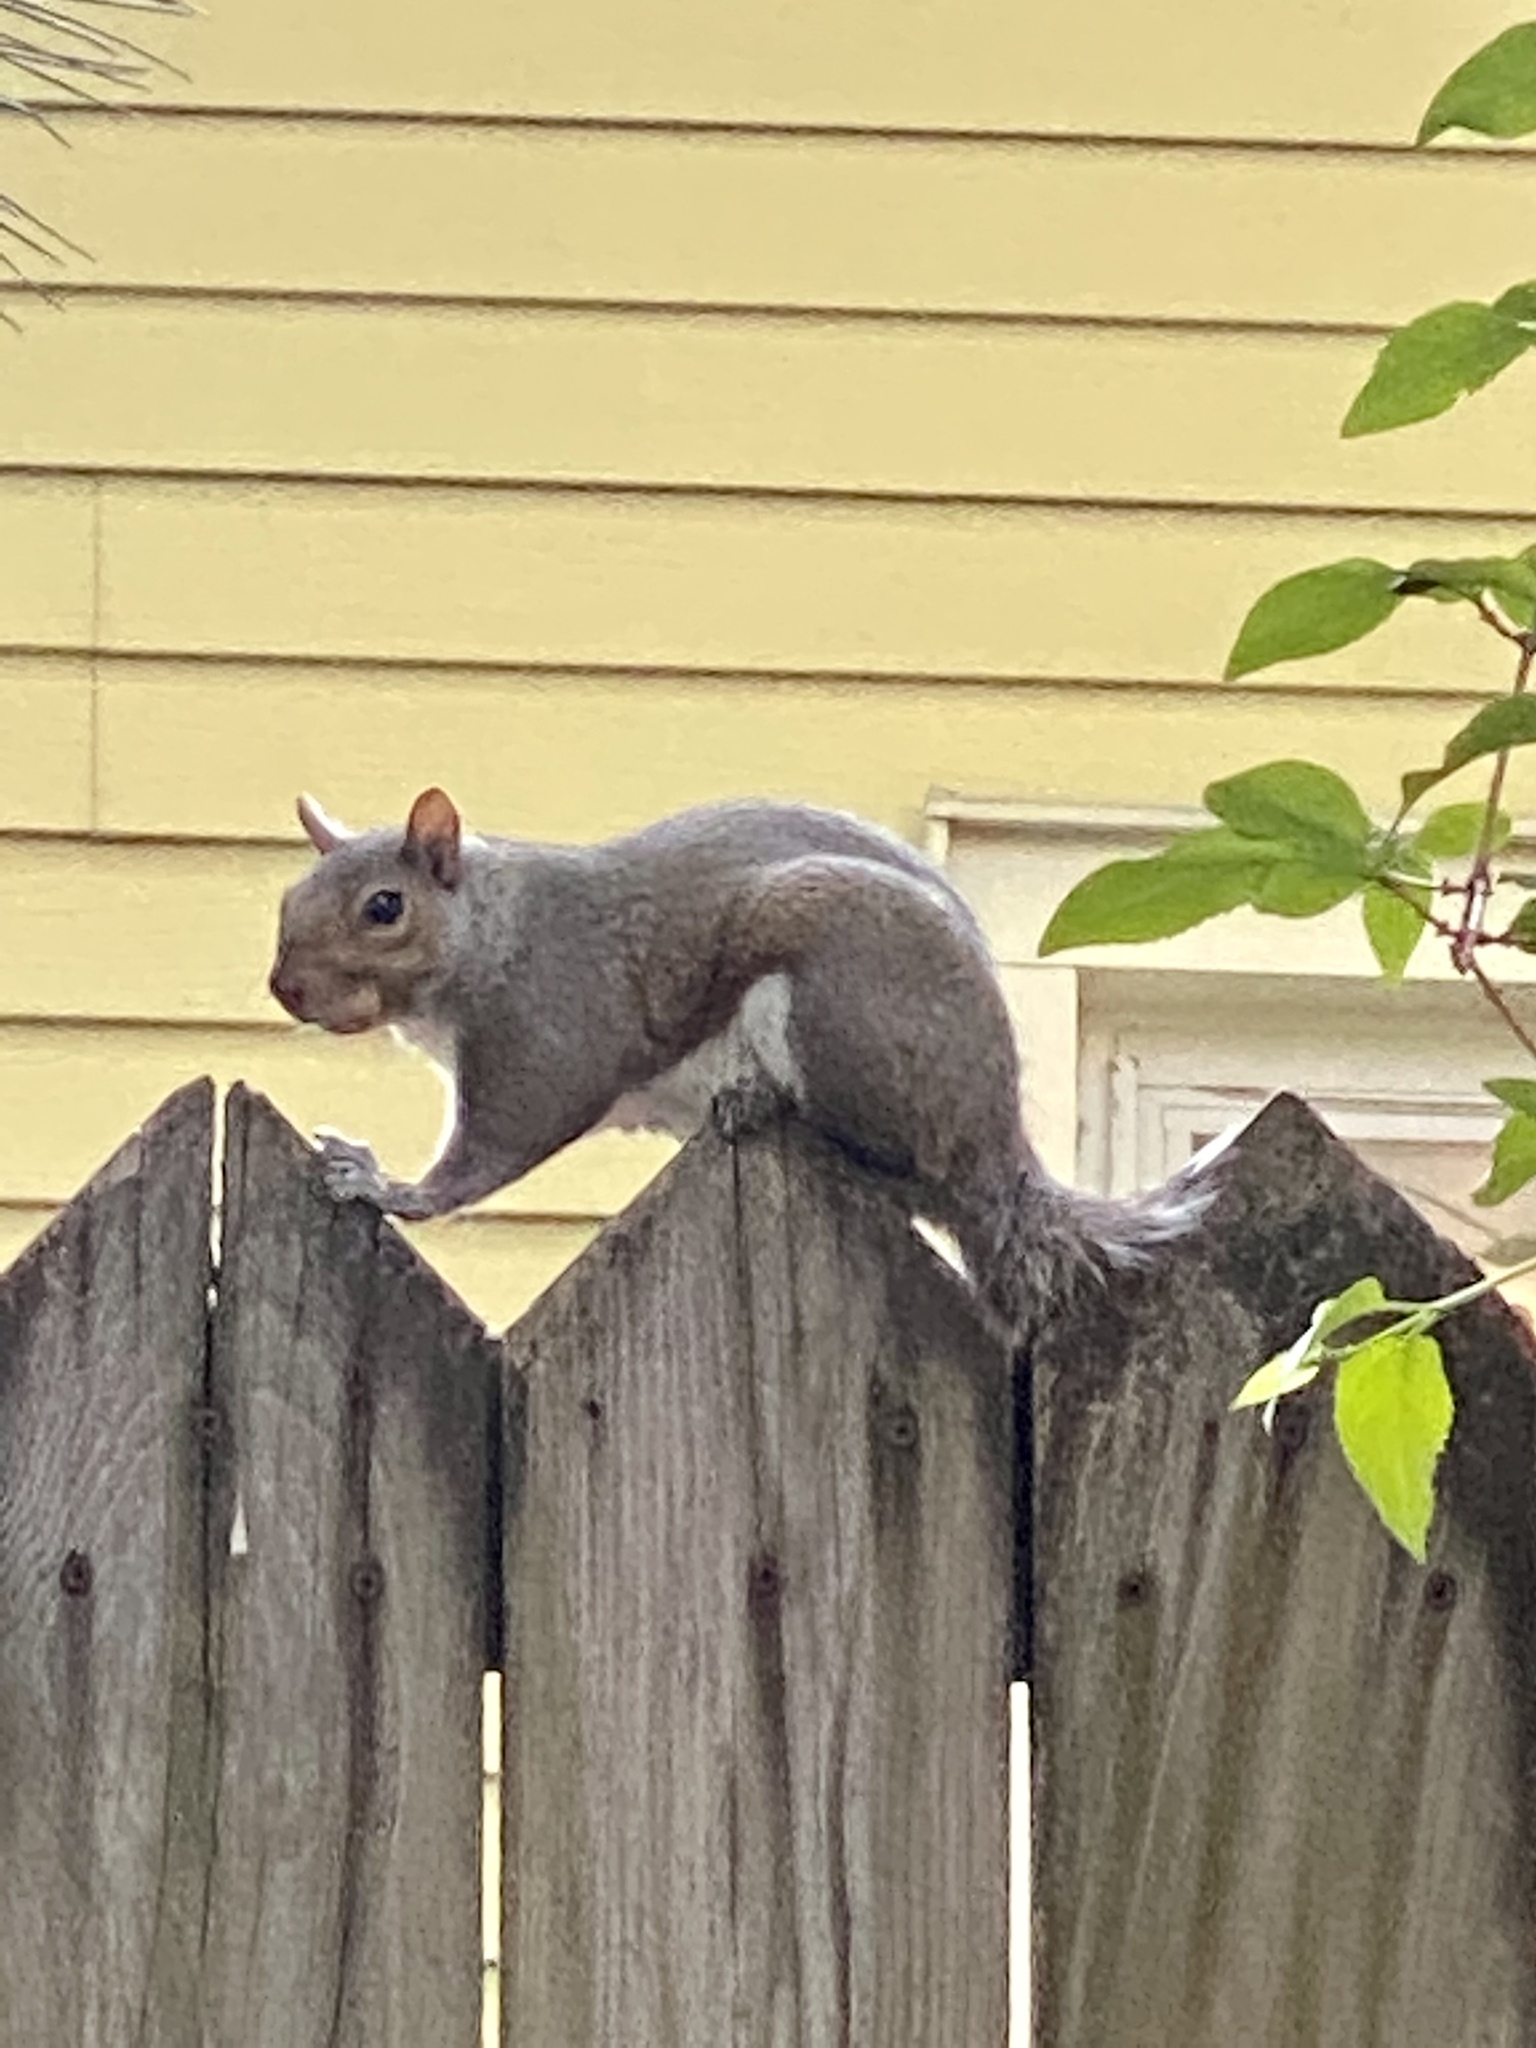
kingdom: Animalia
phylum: Chordata
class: Mammalia
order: Rodentia
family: Sciuridae
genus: Sciurus
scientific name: Sciurus carolinensis
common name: Eastern gray squirrel
